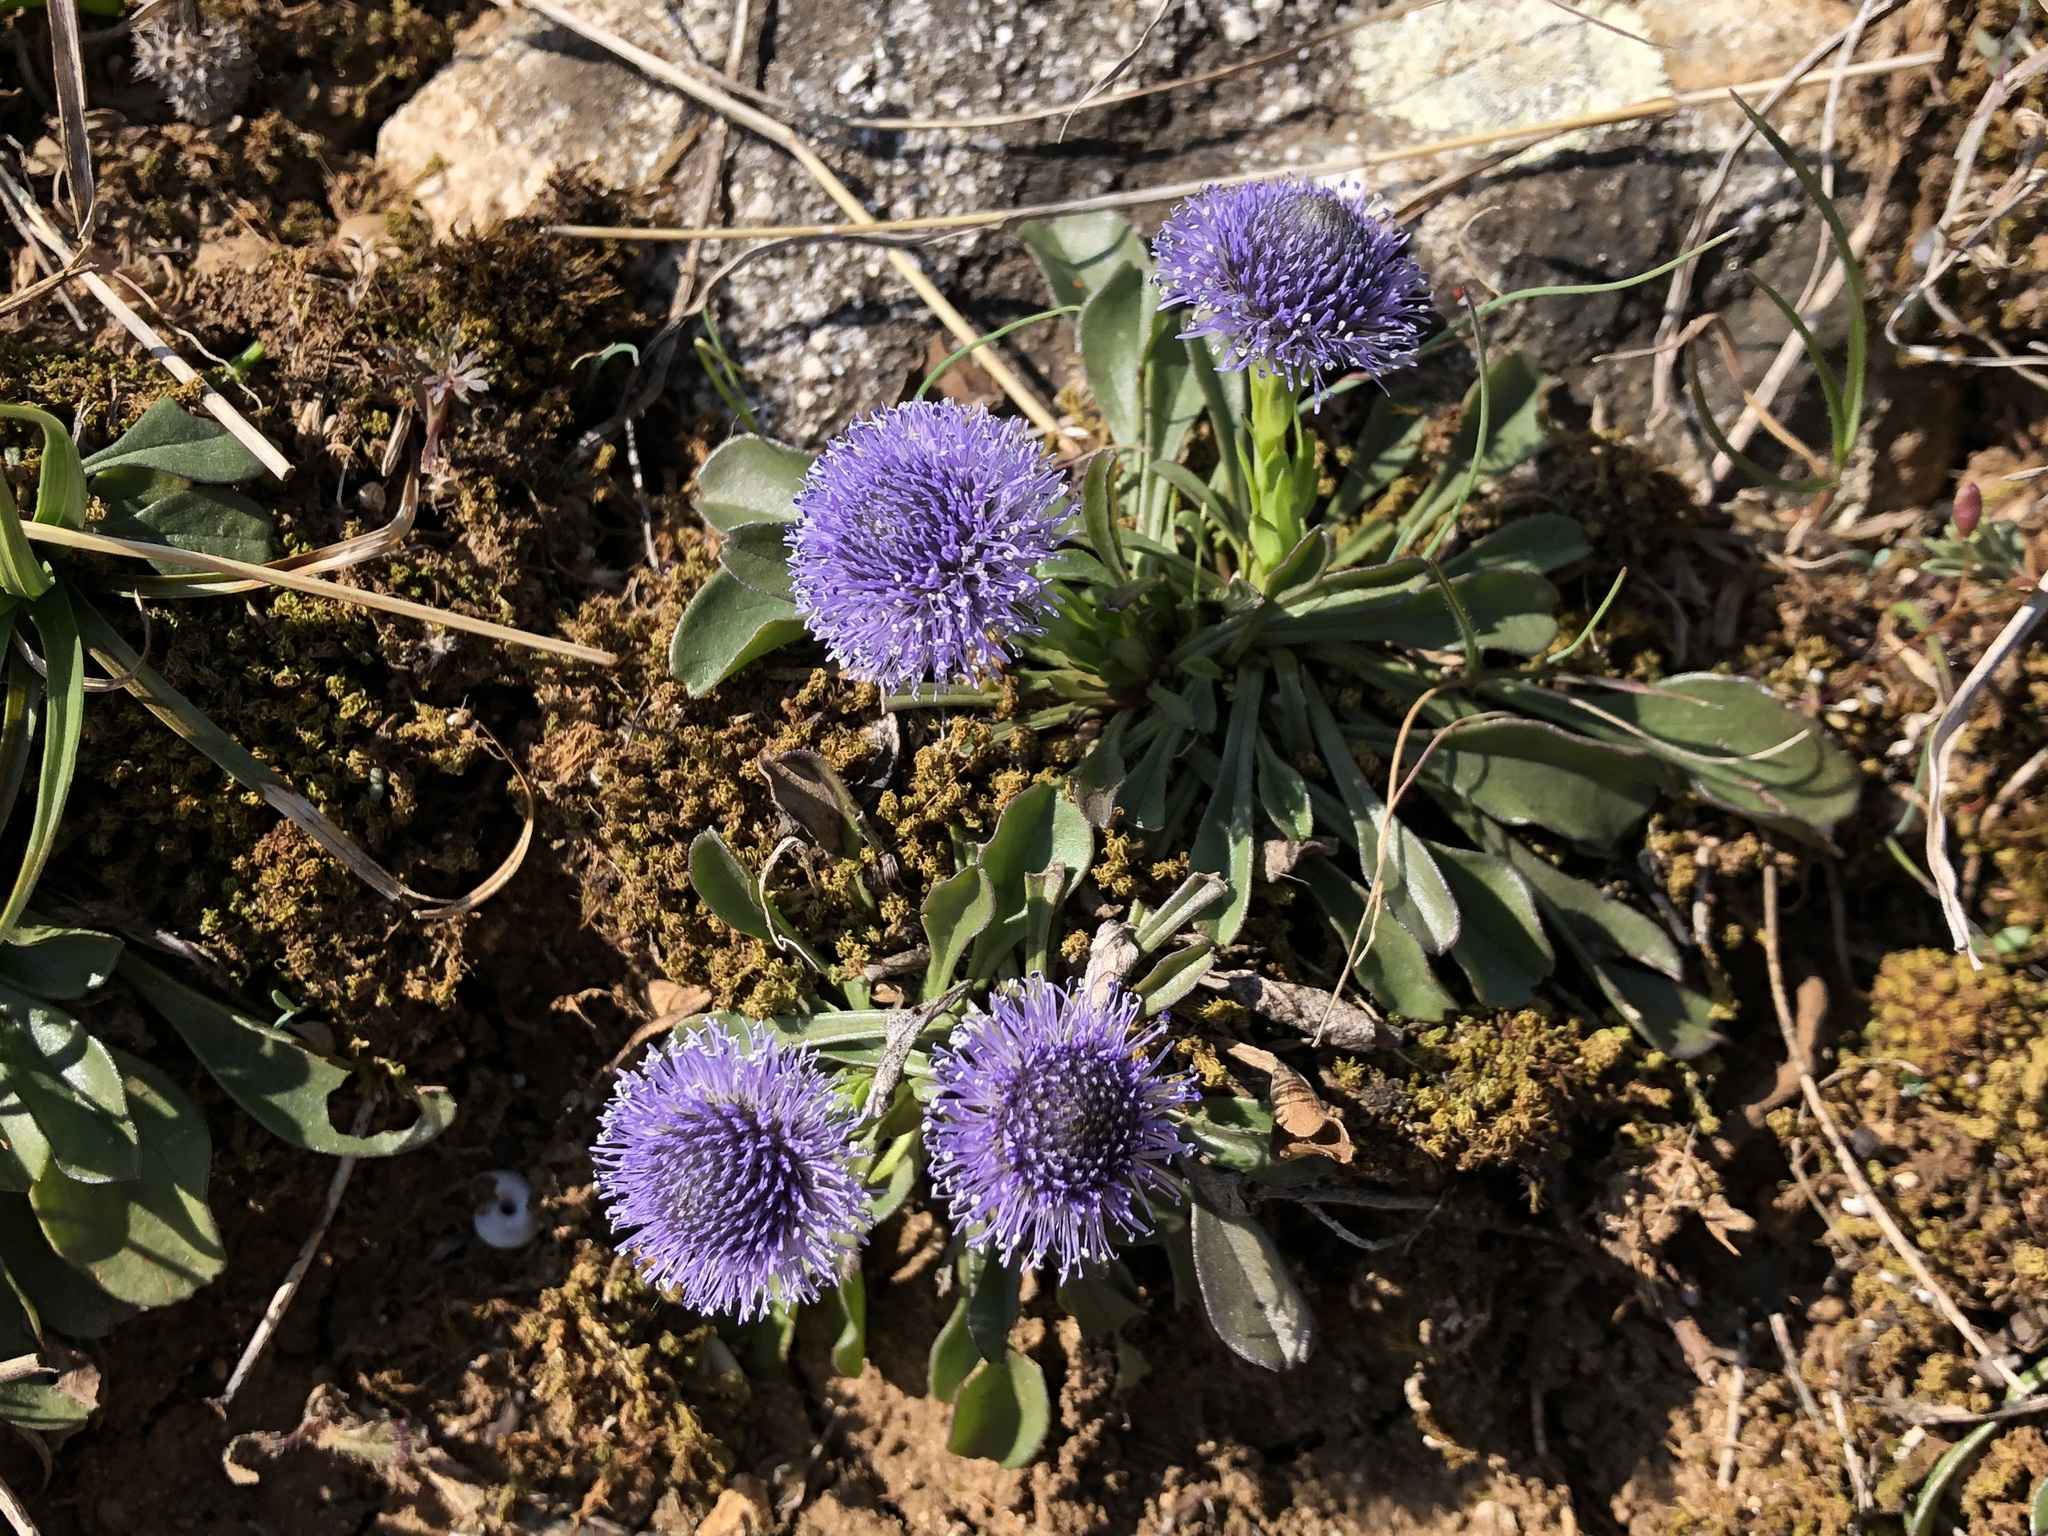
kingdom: Plantae
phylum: Tracheophyta
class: Magnoliopsida
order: Lamiales
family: Plantaginaceae
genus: Globularia
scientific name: Globularia bisnagarica
